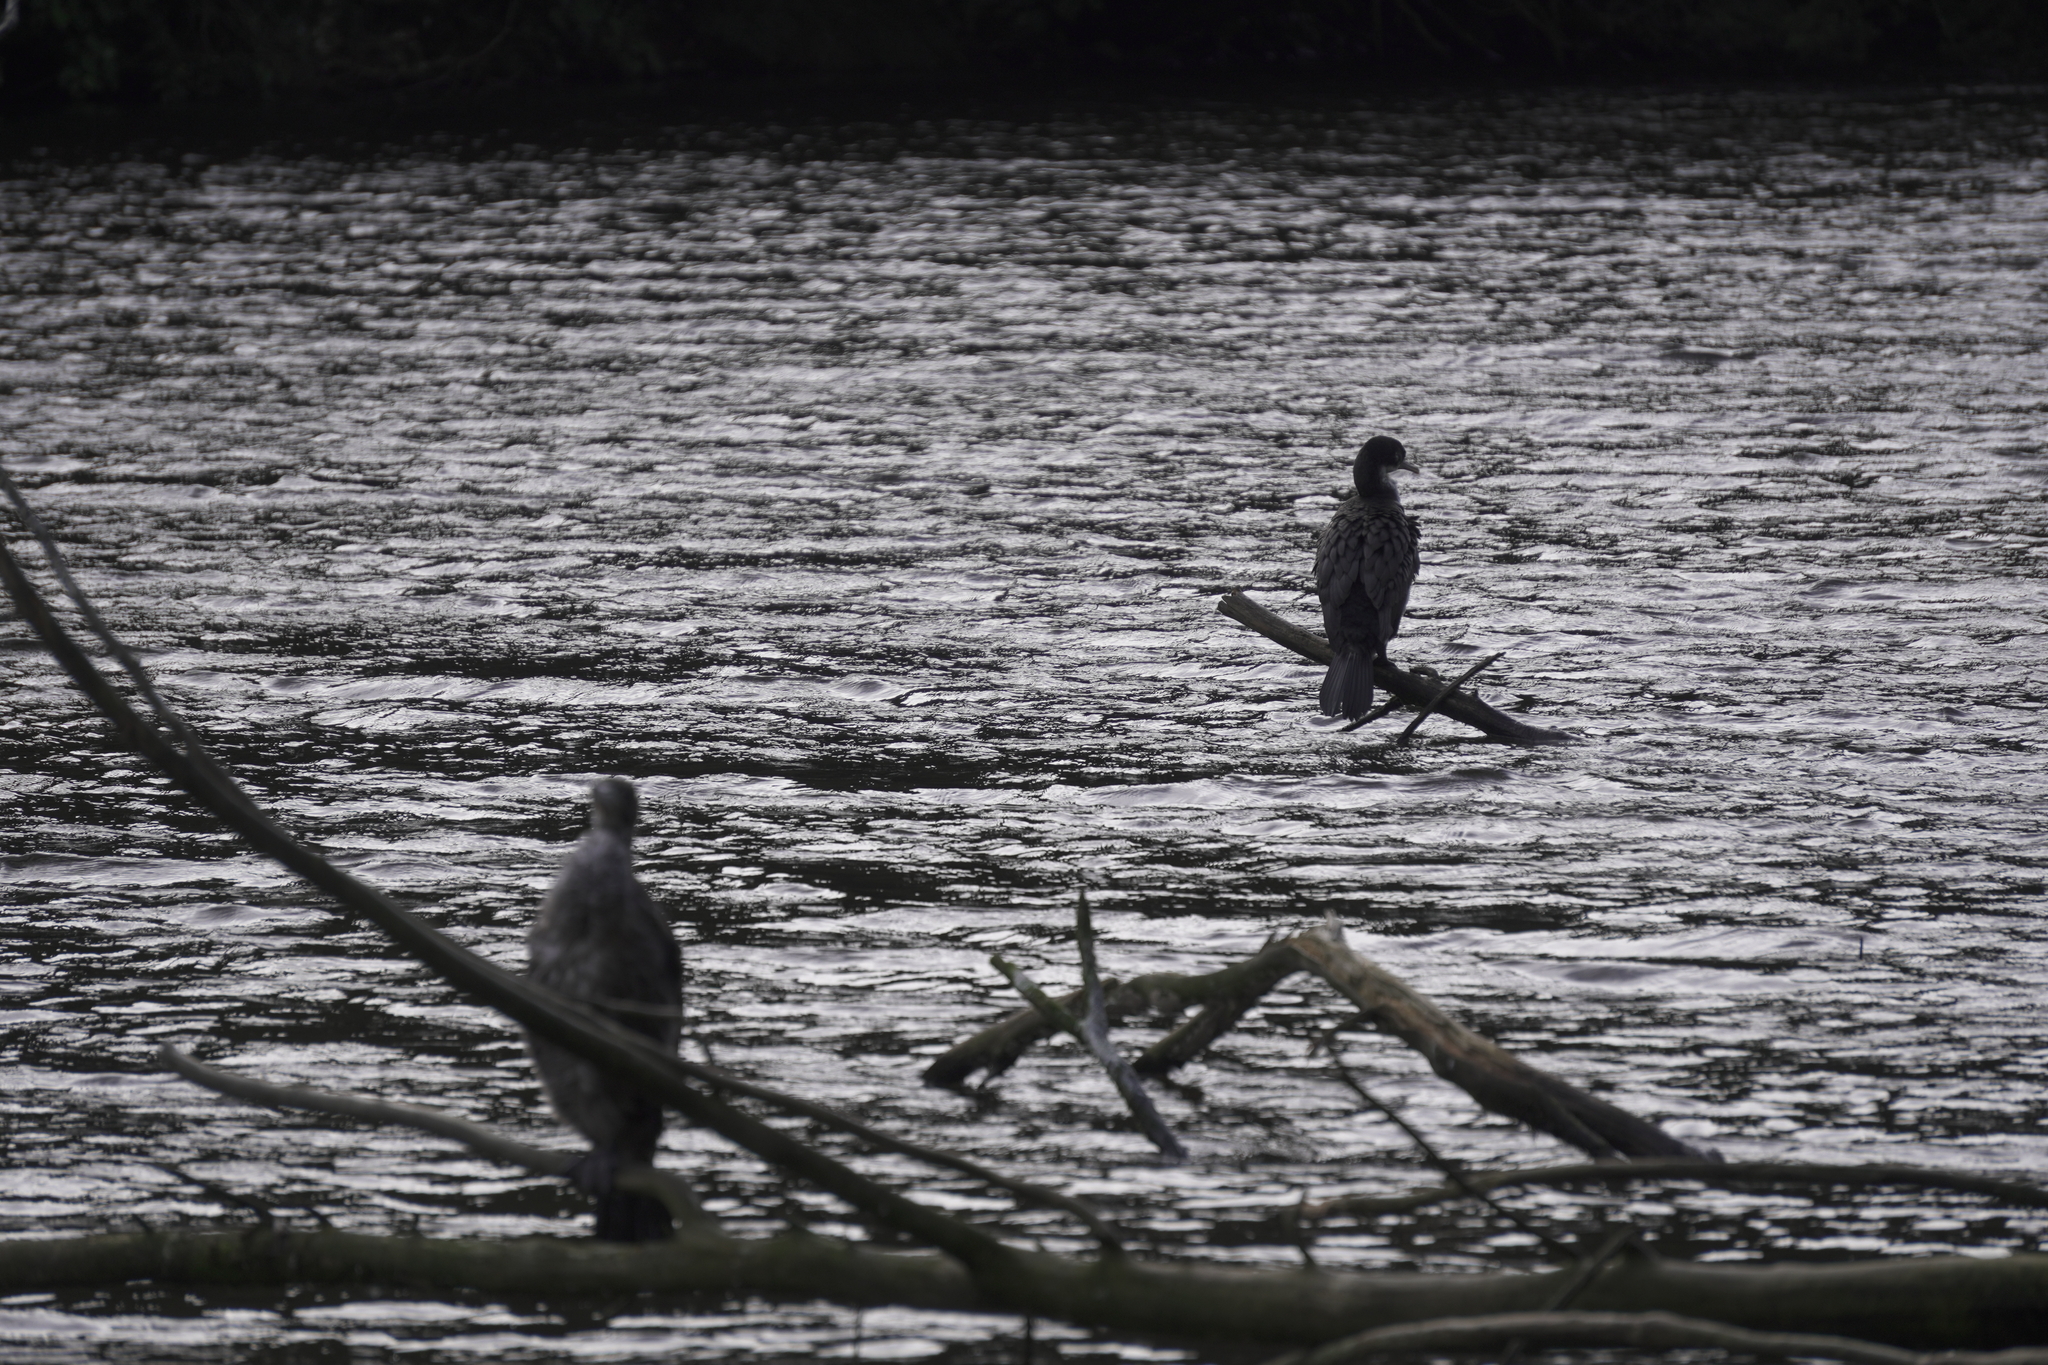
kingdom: Animalia
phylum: Chordata
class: Aves
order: Suliformes
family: Phalacrocoracidae
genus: Phalacrocorax
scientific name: Phalacrocorax varius
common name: Pied cormorant
